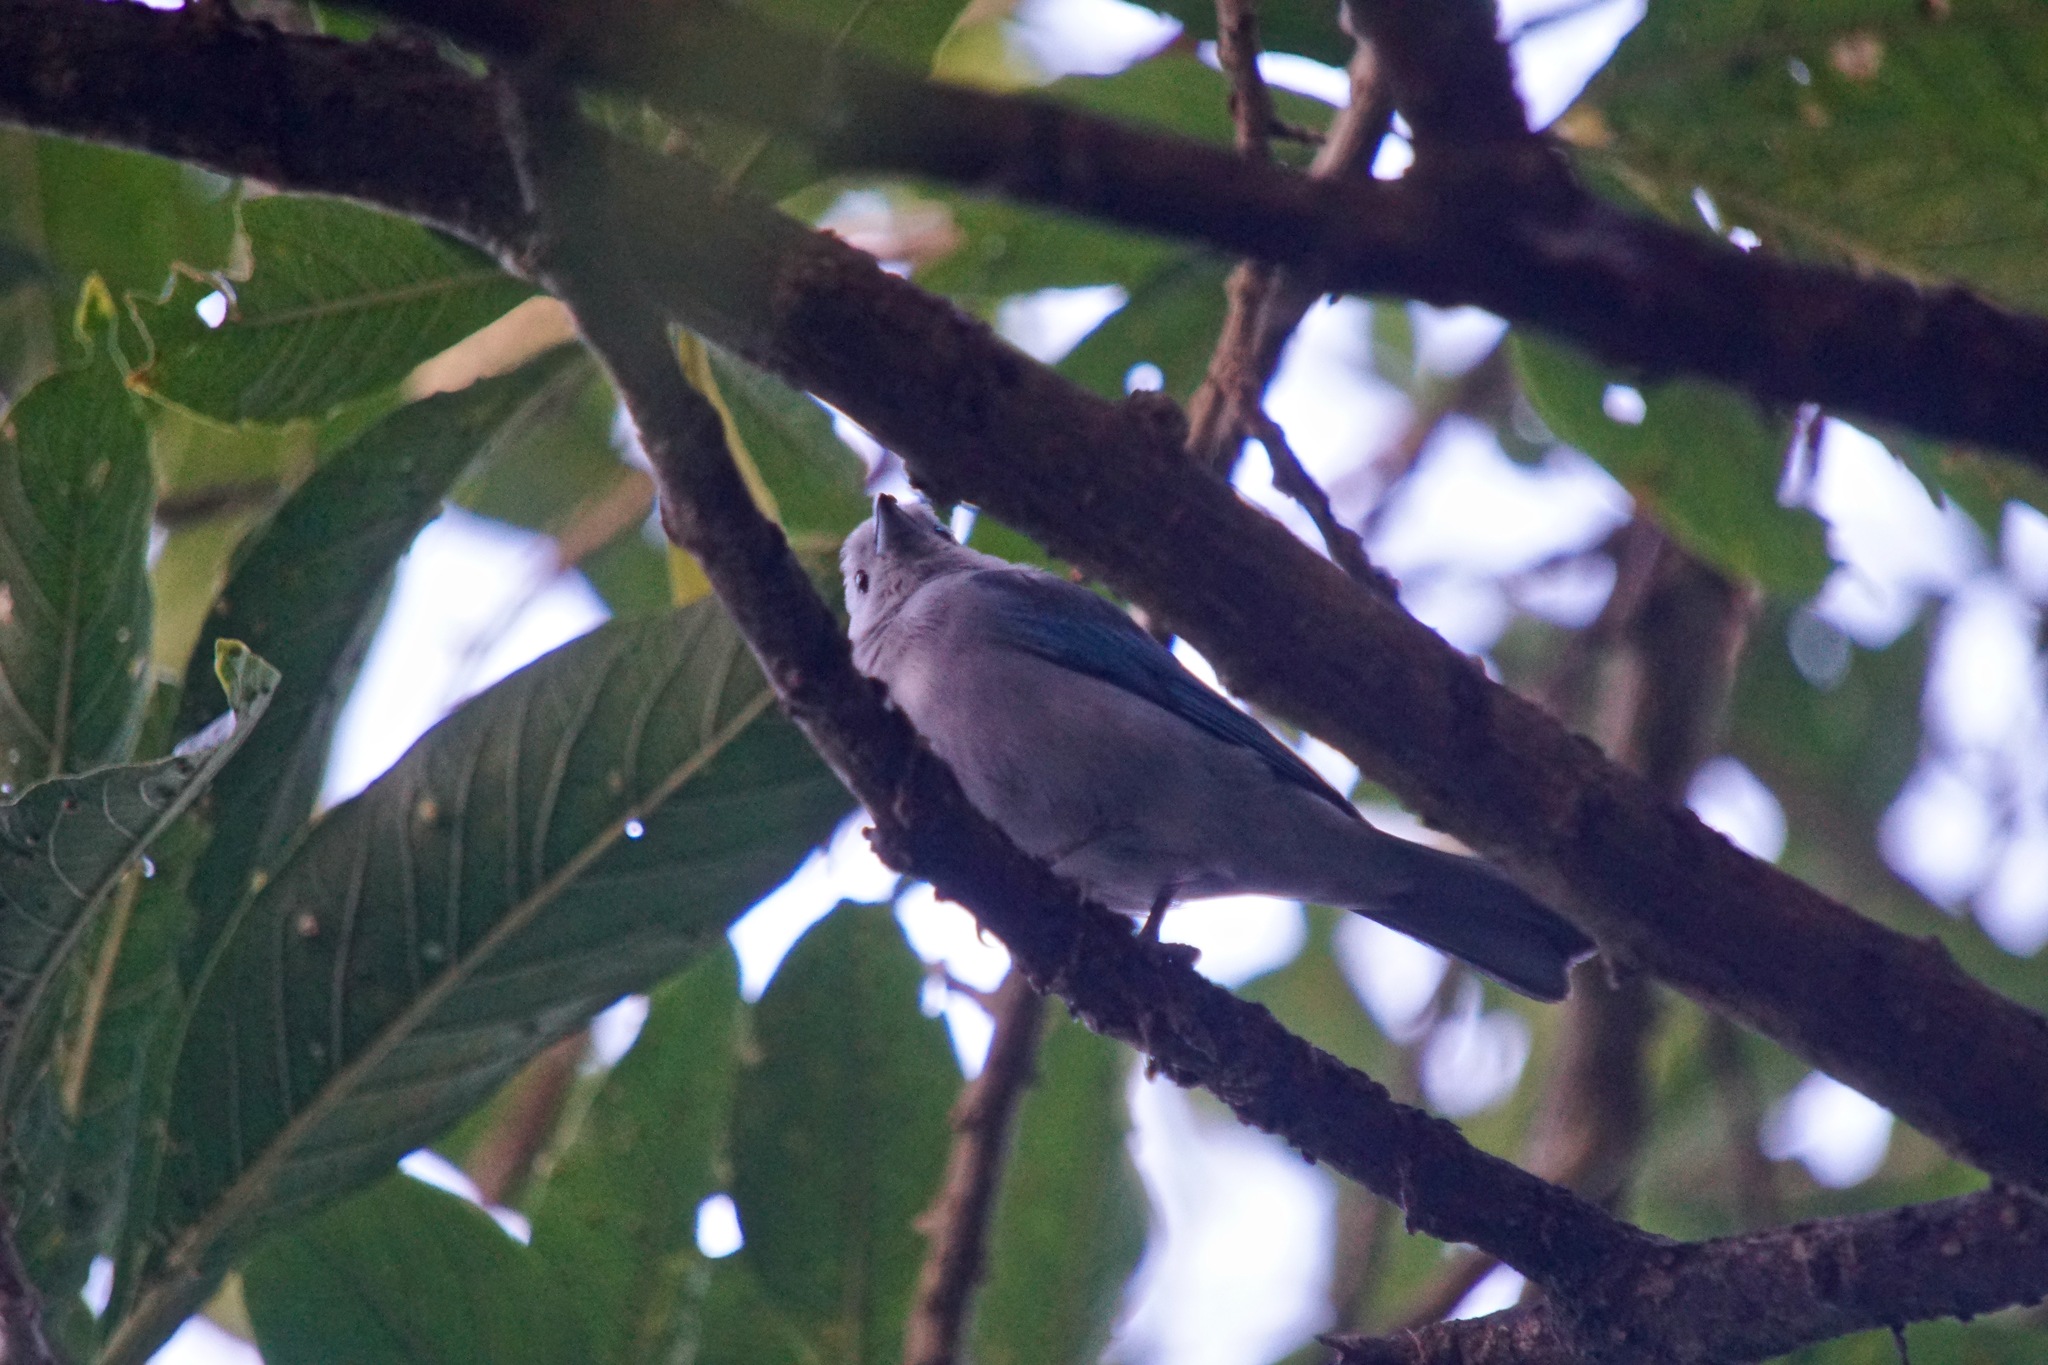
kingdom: Animalia
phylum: Chordata
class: Aves
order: Passeriformes
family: Thraupidae
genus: Thraupis
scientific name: Thraupis episcopus
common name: Blue-grey tanager
